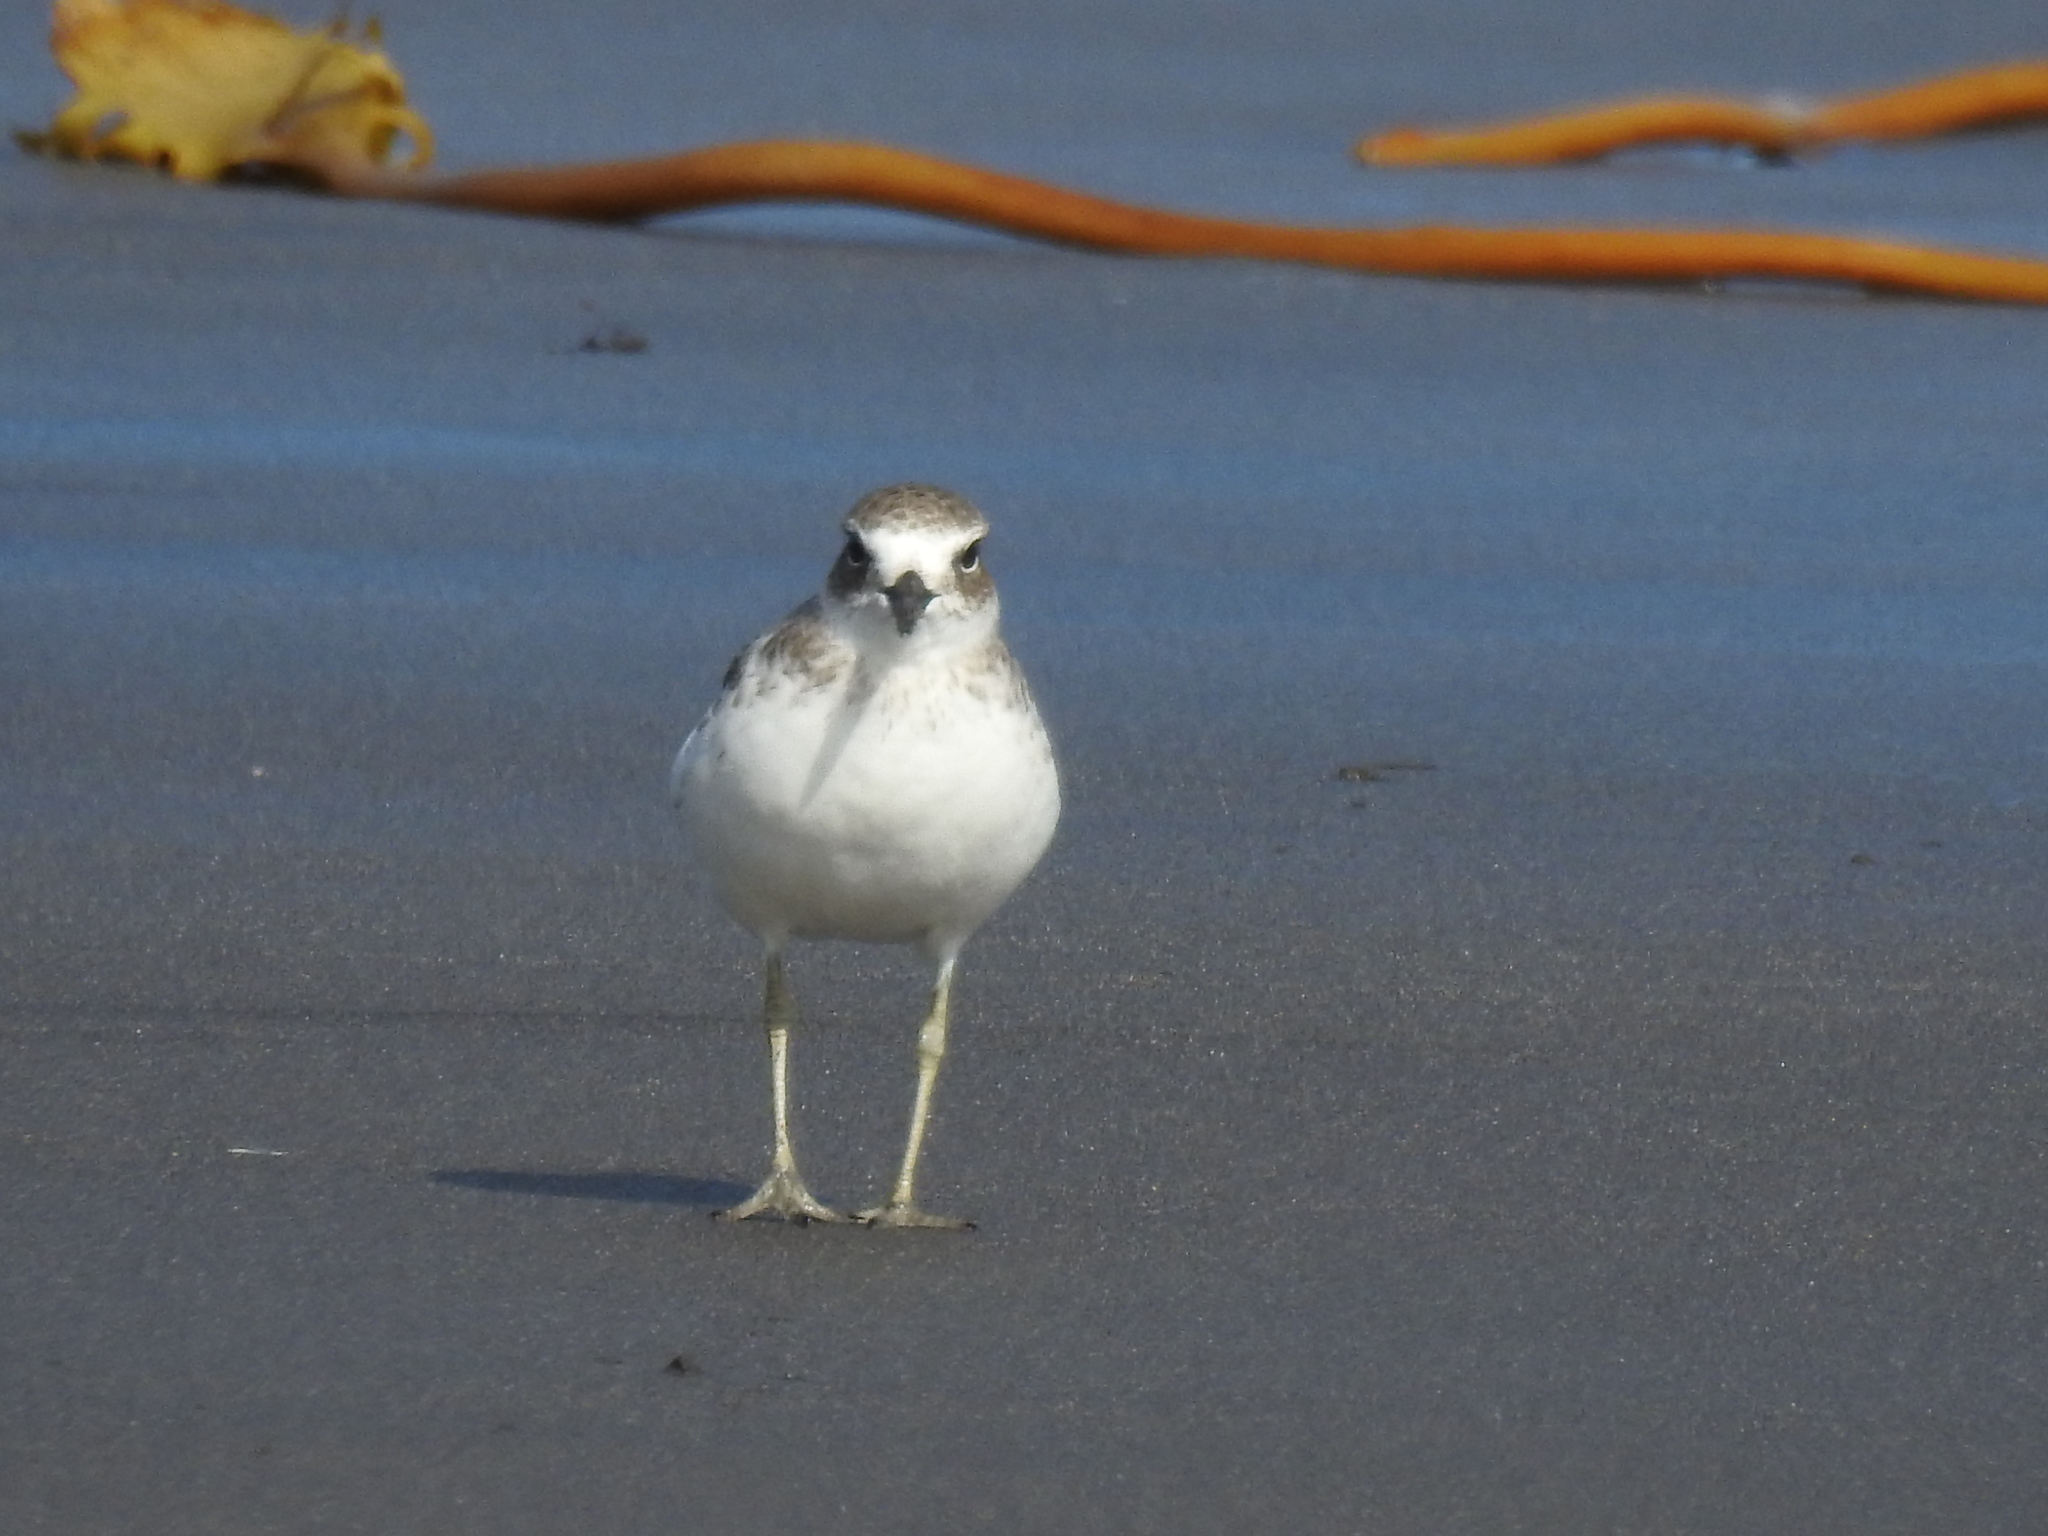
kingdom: Animalia
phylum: Chordata
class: Aves
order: Charadriiformes
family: Charadriidae
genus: Anarhynchus
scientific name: Anarhynchus
